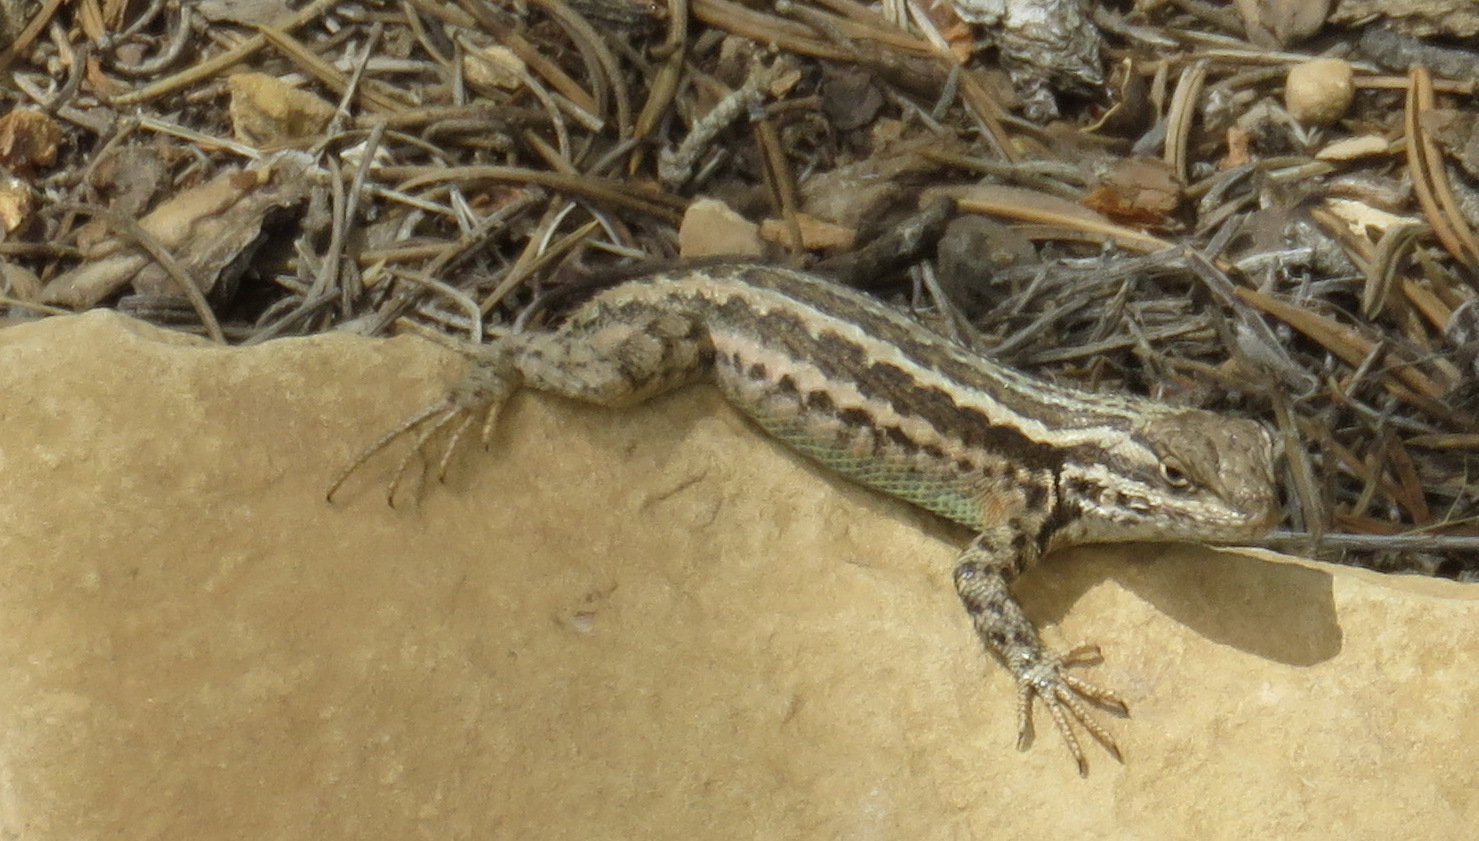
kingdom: Animalia
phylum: Chordata
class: Squamata
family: Phrynosomatidae
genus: Sceloporus
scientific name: Sceloporus graciosus
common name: Sagebrush lizard
